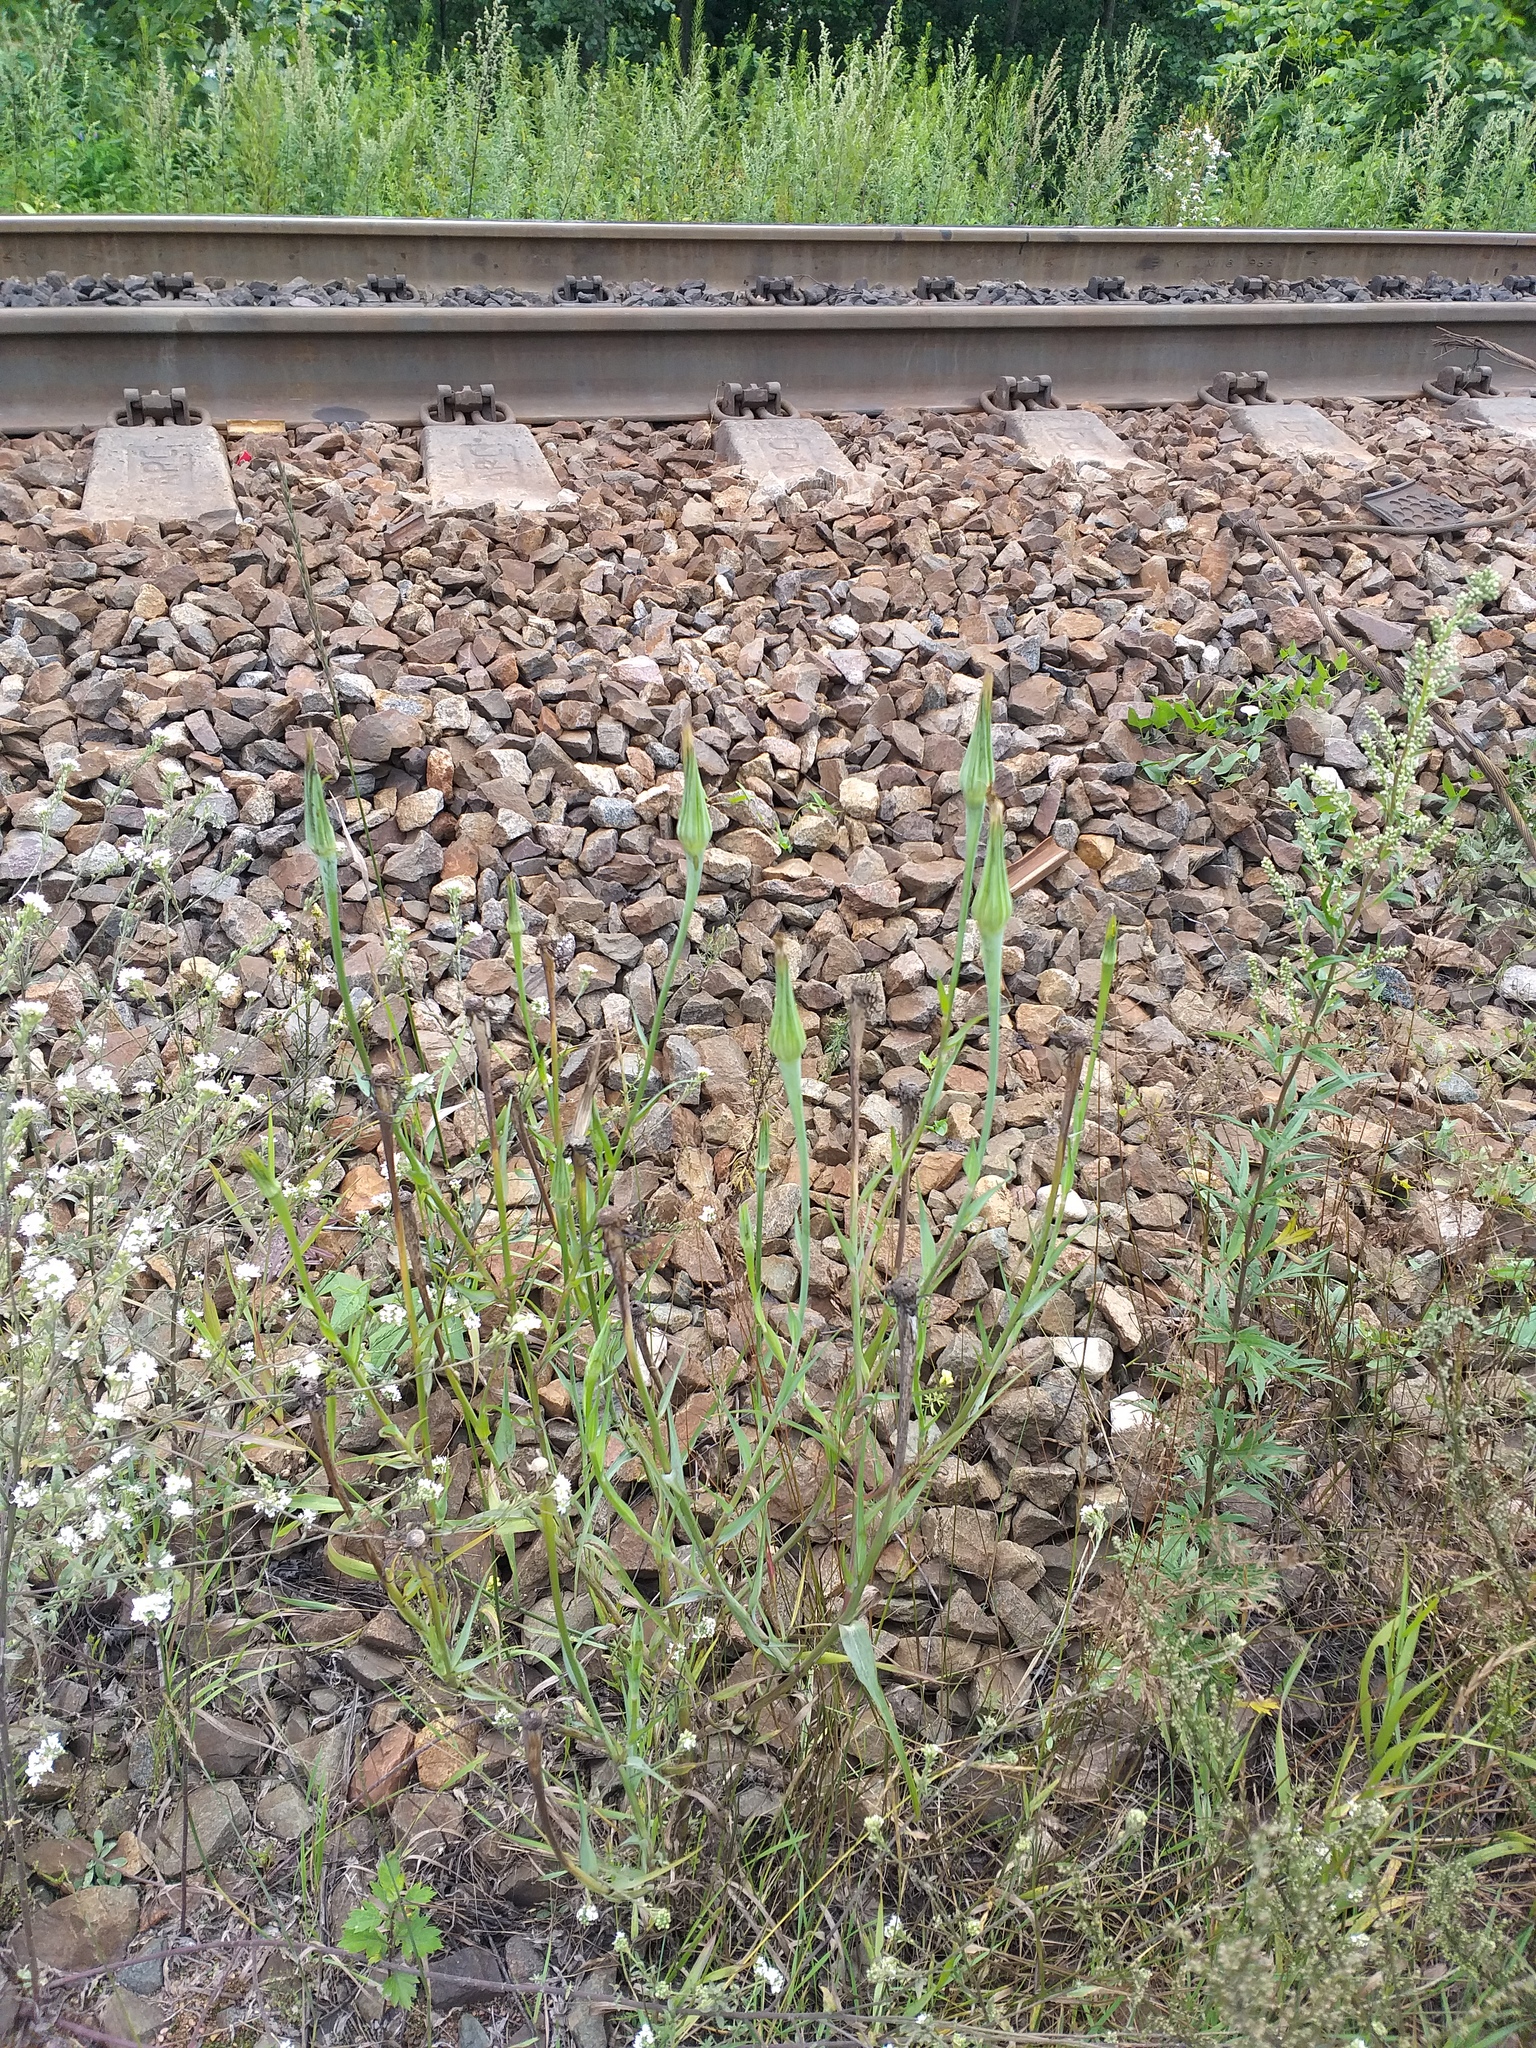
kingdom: Plantae
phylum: Tracheophyta
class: Magnoliopsida
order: Asterales
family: Asteraceae
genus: Tragopogon
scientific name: Tragopogon dubius
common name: Yellow salsify
